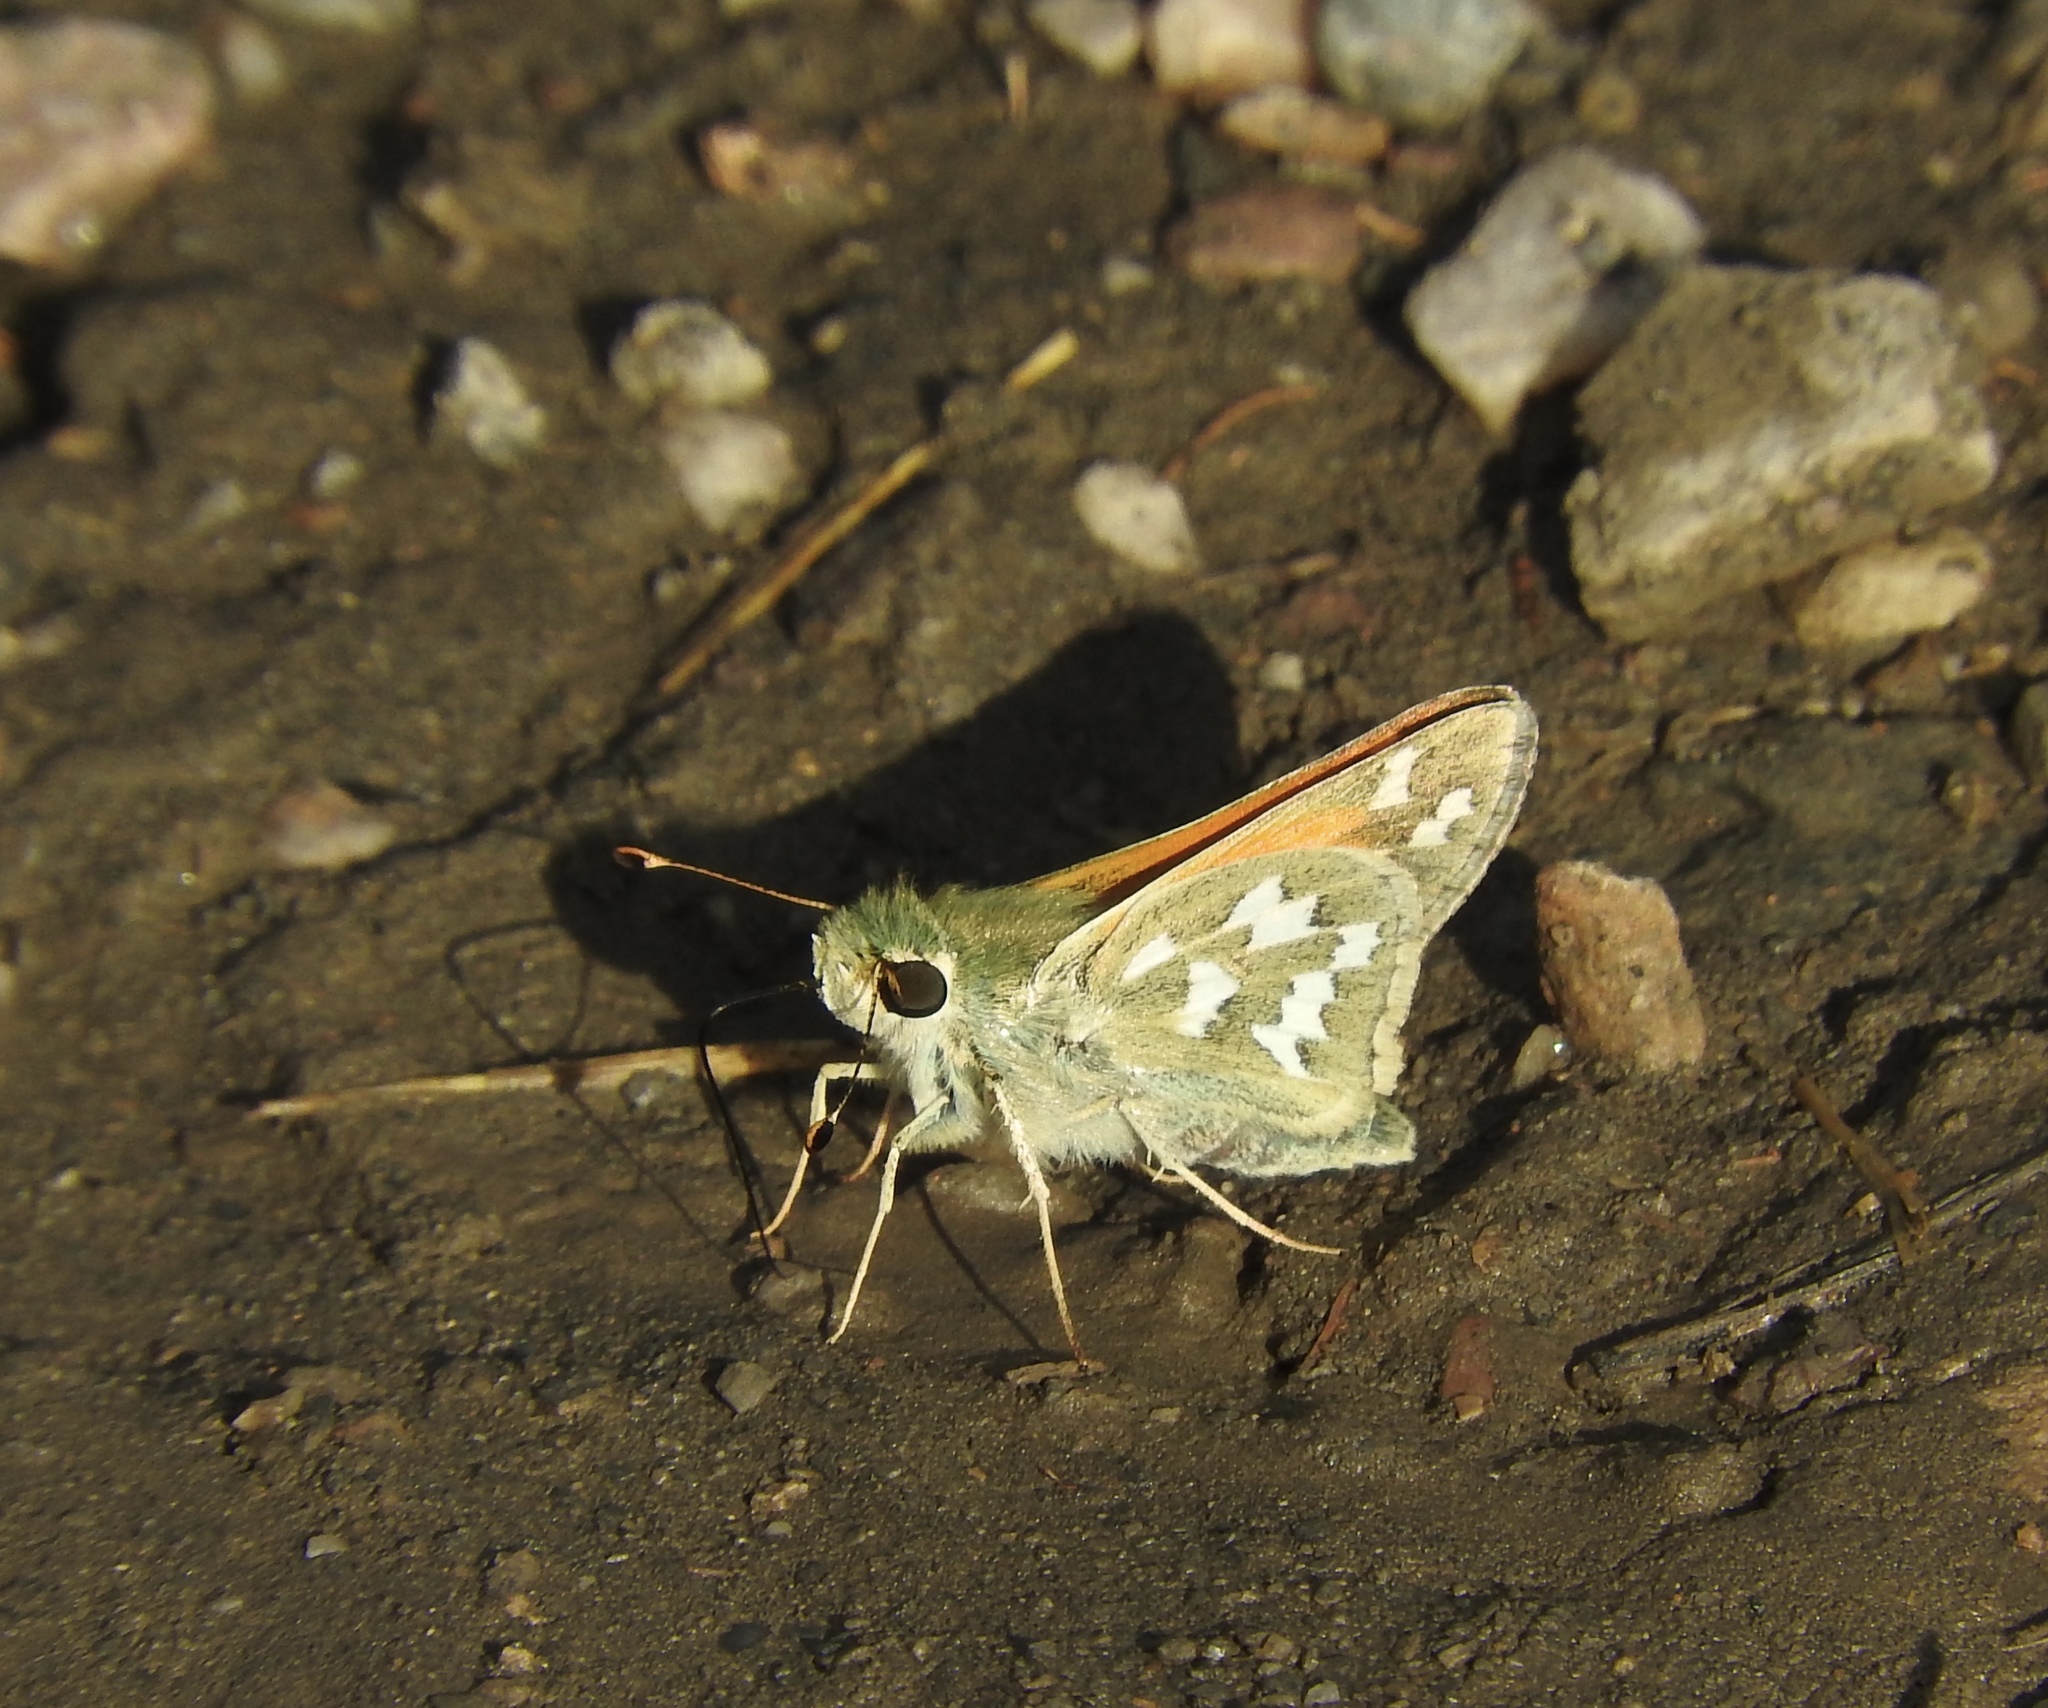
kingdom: Animalia
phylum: Arthropoda
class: Insecta
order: Lepidoptera
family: Hesperiidae
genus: Hesperia
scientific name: Hesperia juba
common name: Juba skipper
